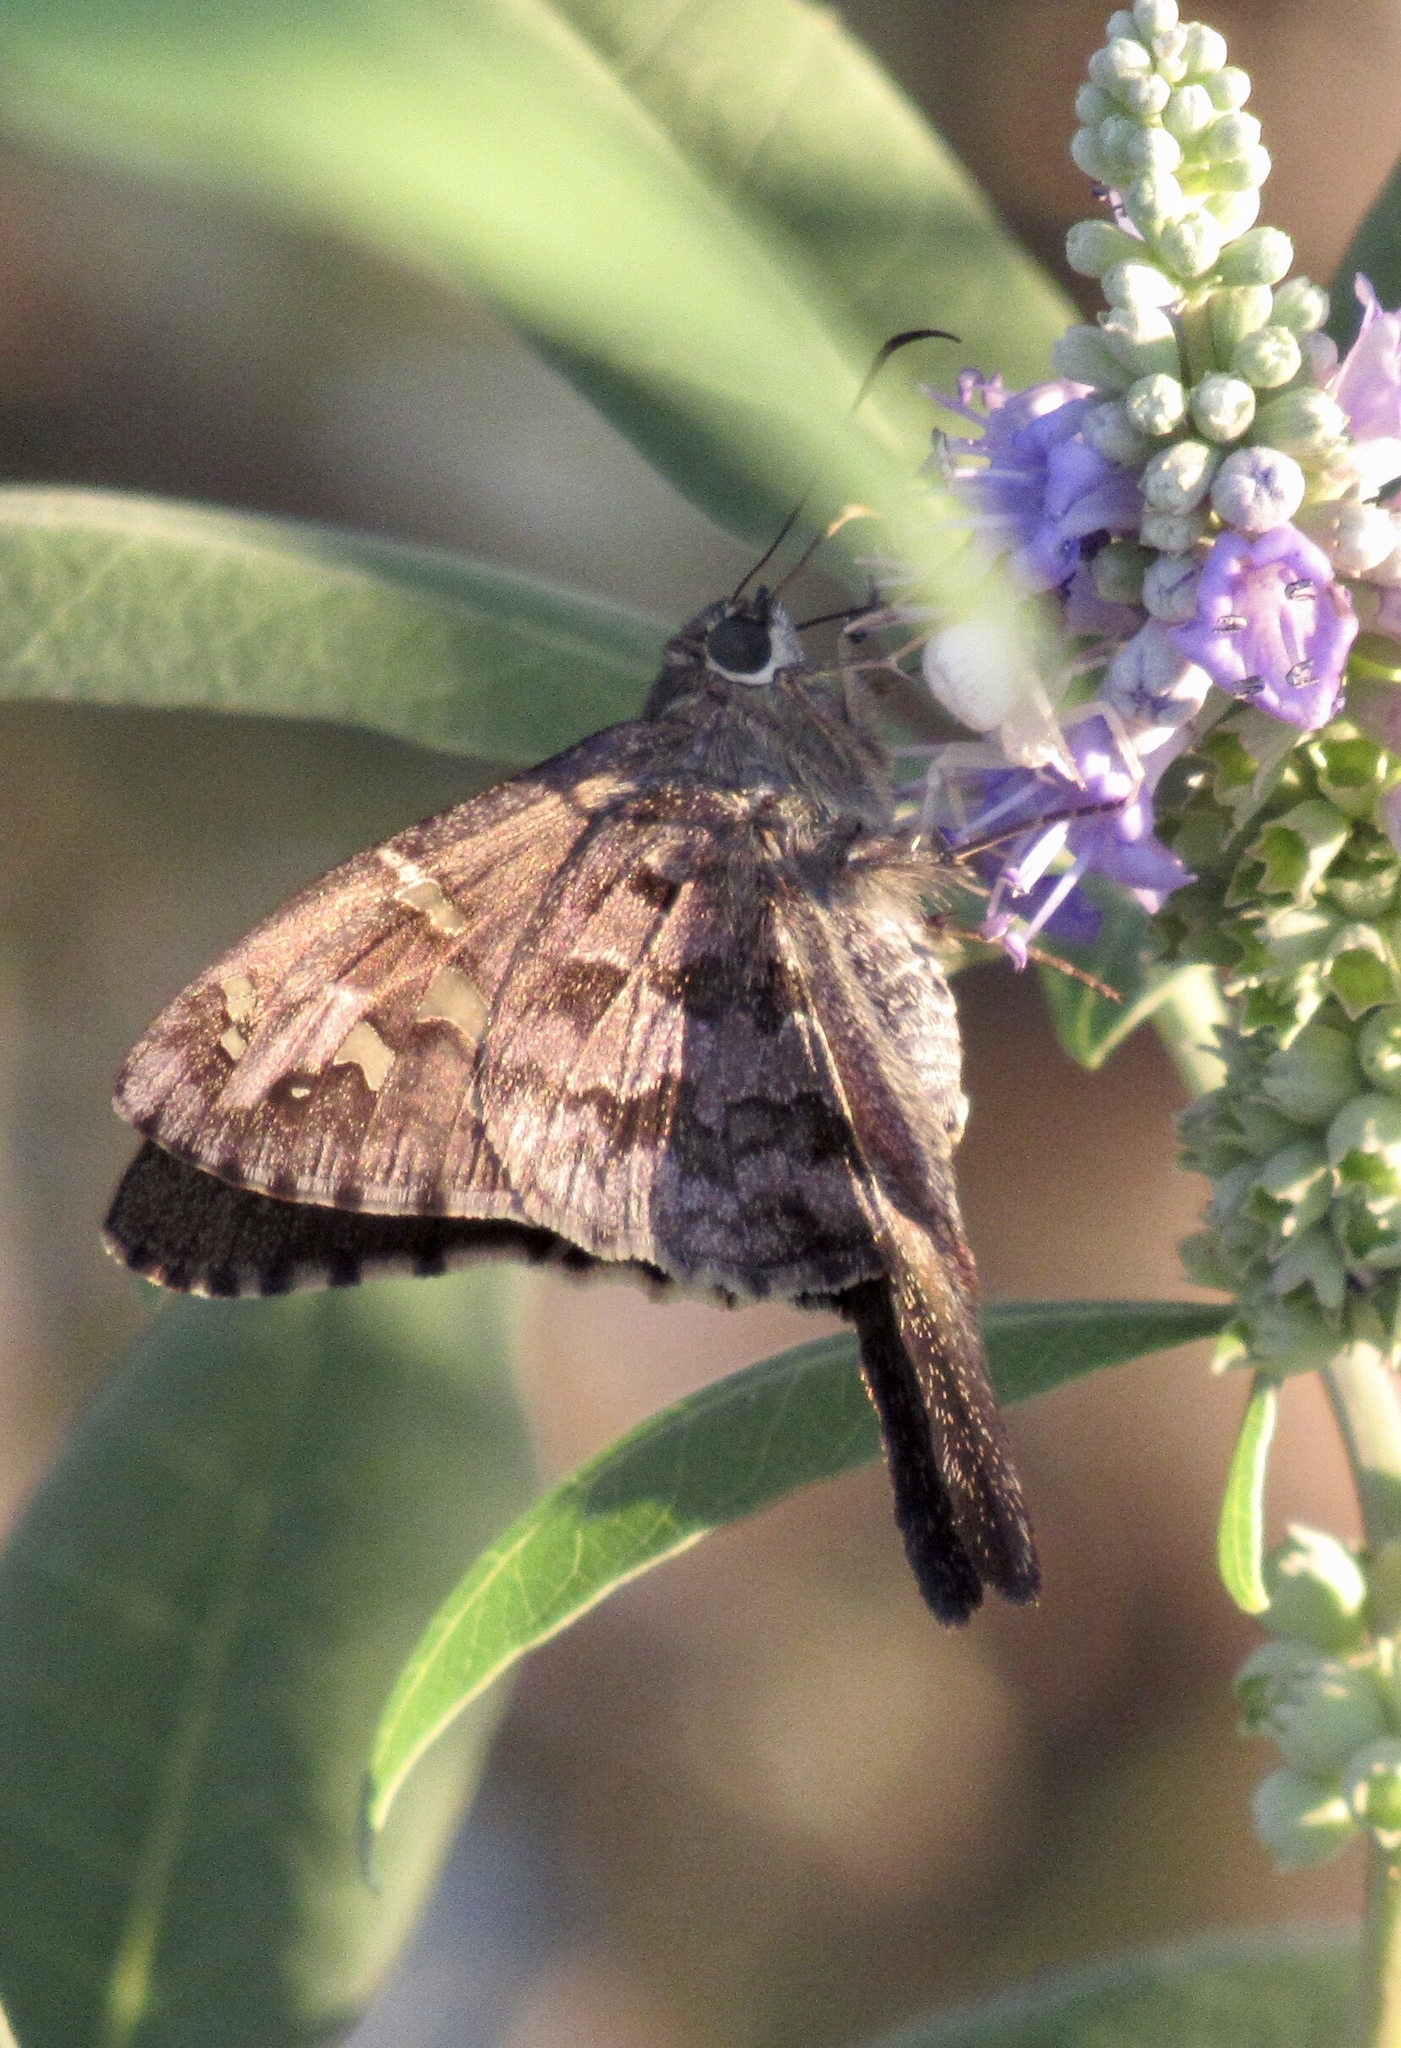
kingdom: Animalia
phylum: Arthropoda
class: Insecta
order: Lepidoptera
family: Hesperiidae
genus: Thorybes
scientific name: Thorybes
